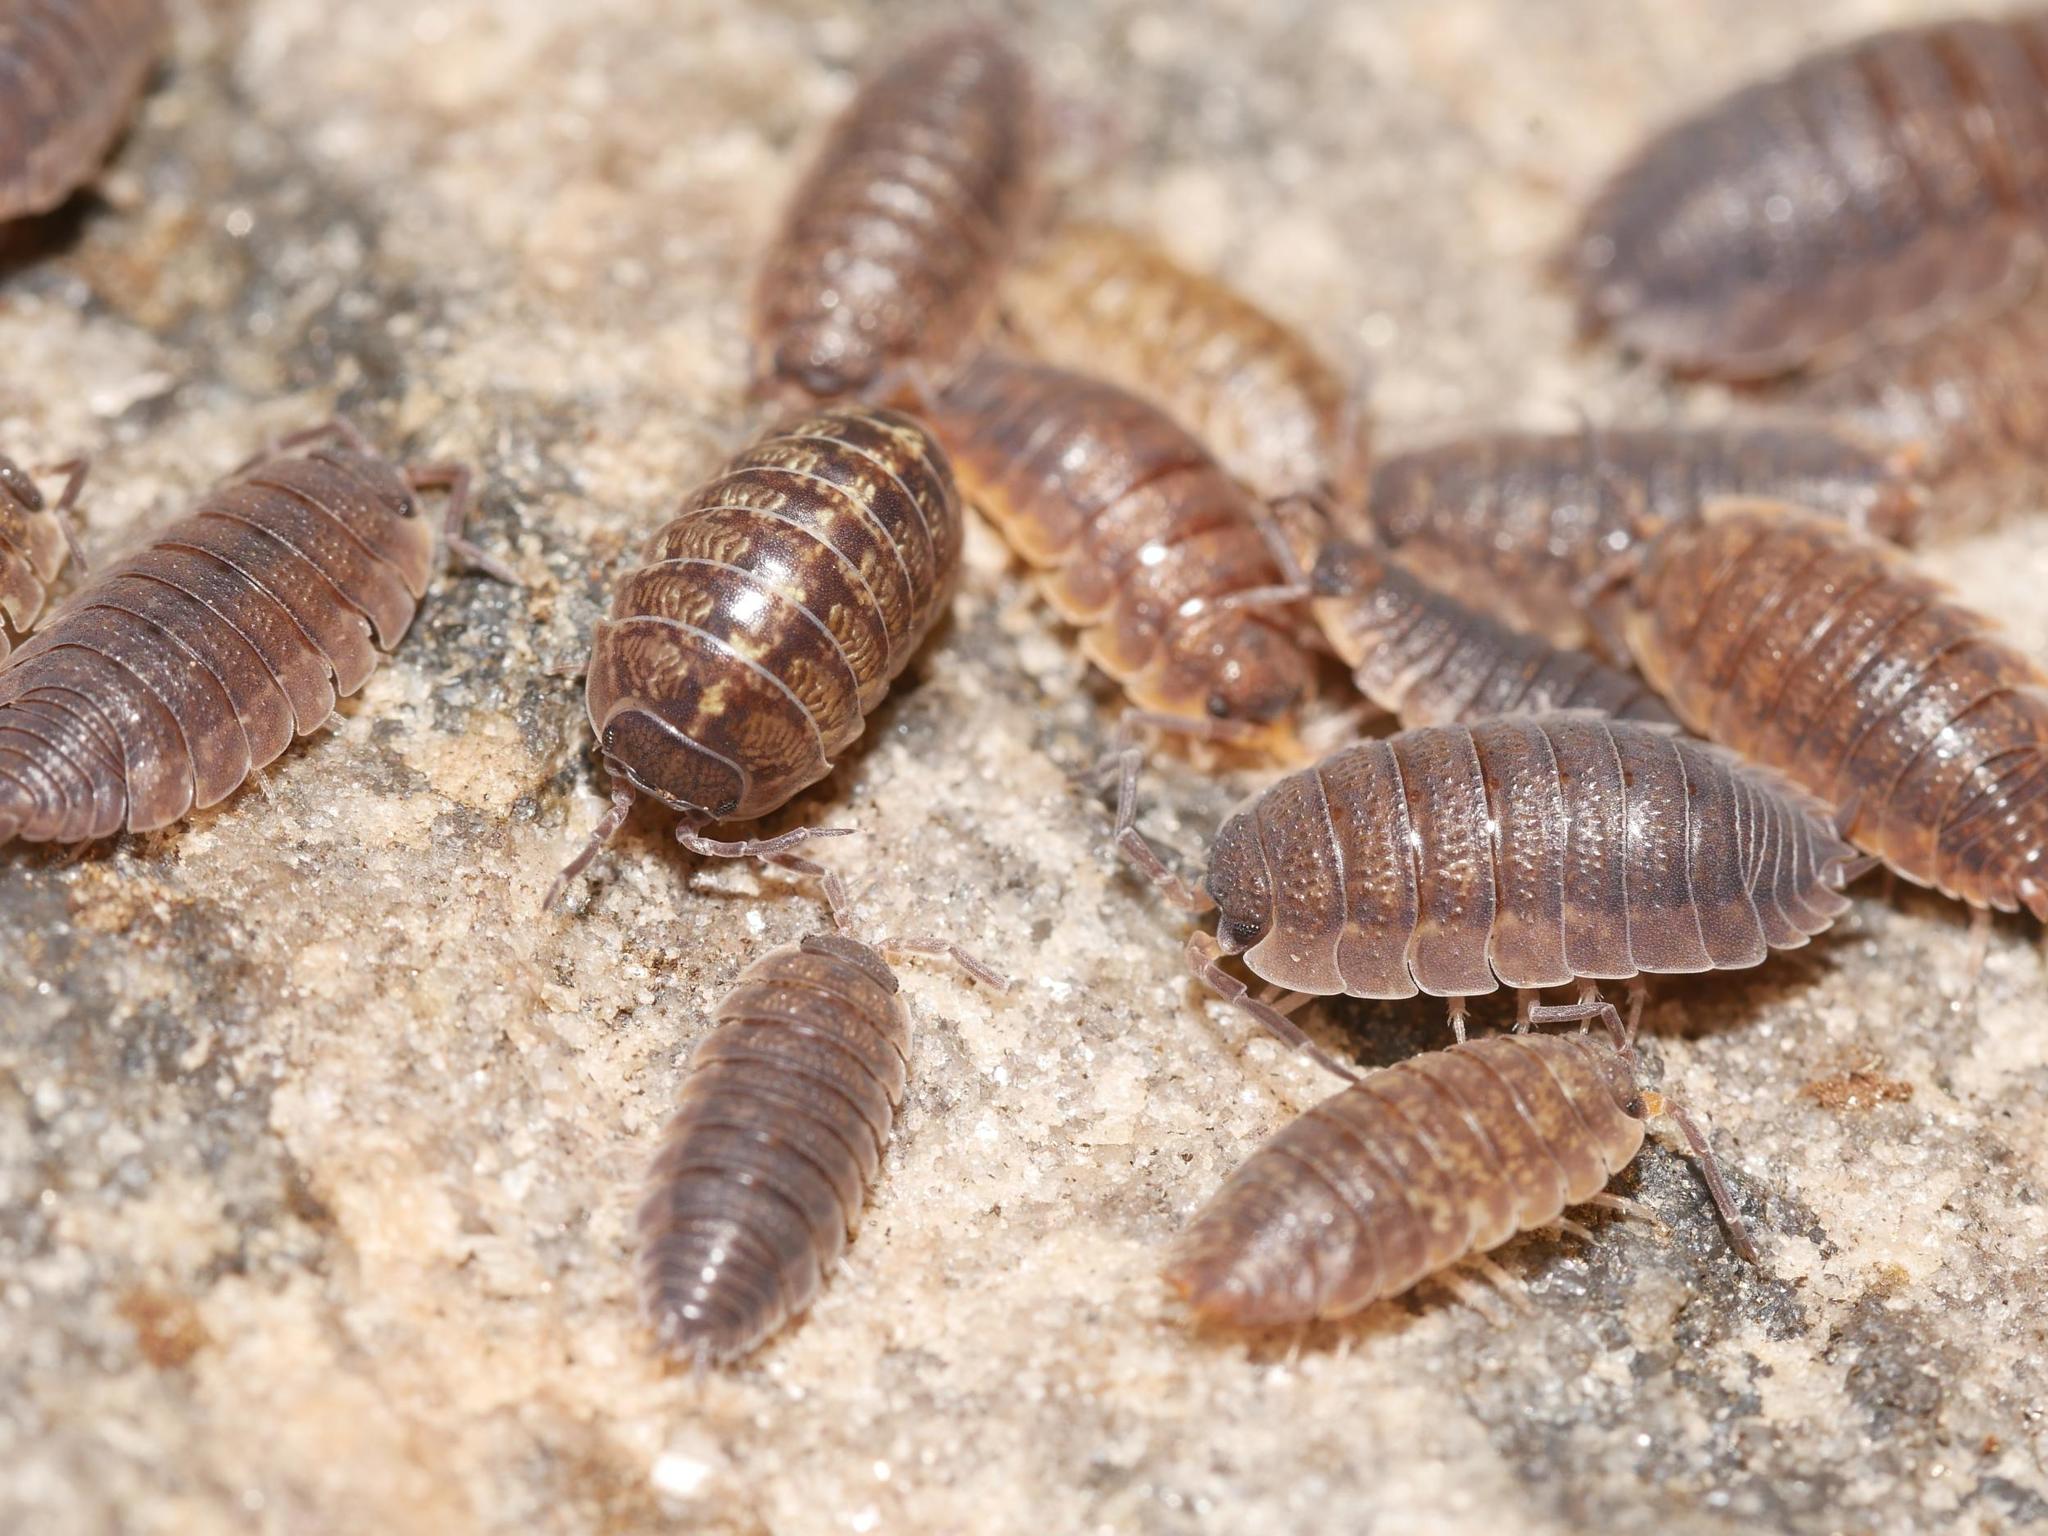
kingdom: Animalia
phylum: Arthropoda
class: Malacostraca
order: Isopoda
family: Porcellionidae
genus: Porcellio
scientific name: Porcellio scaber
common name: Common rough woodlouse
